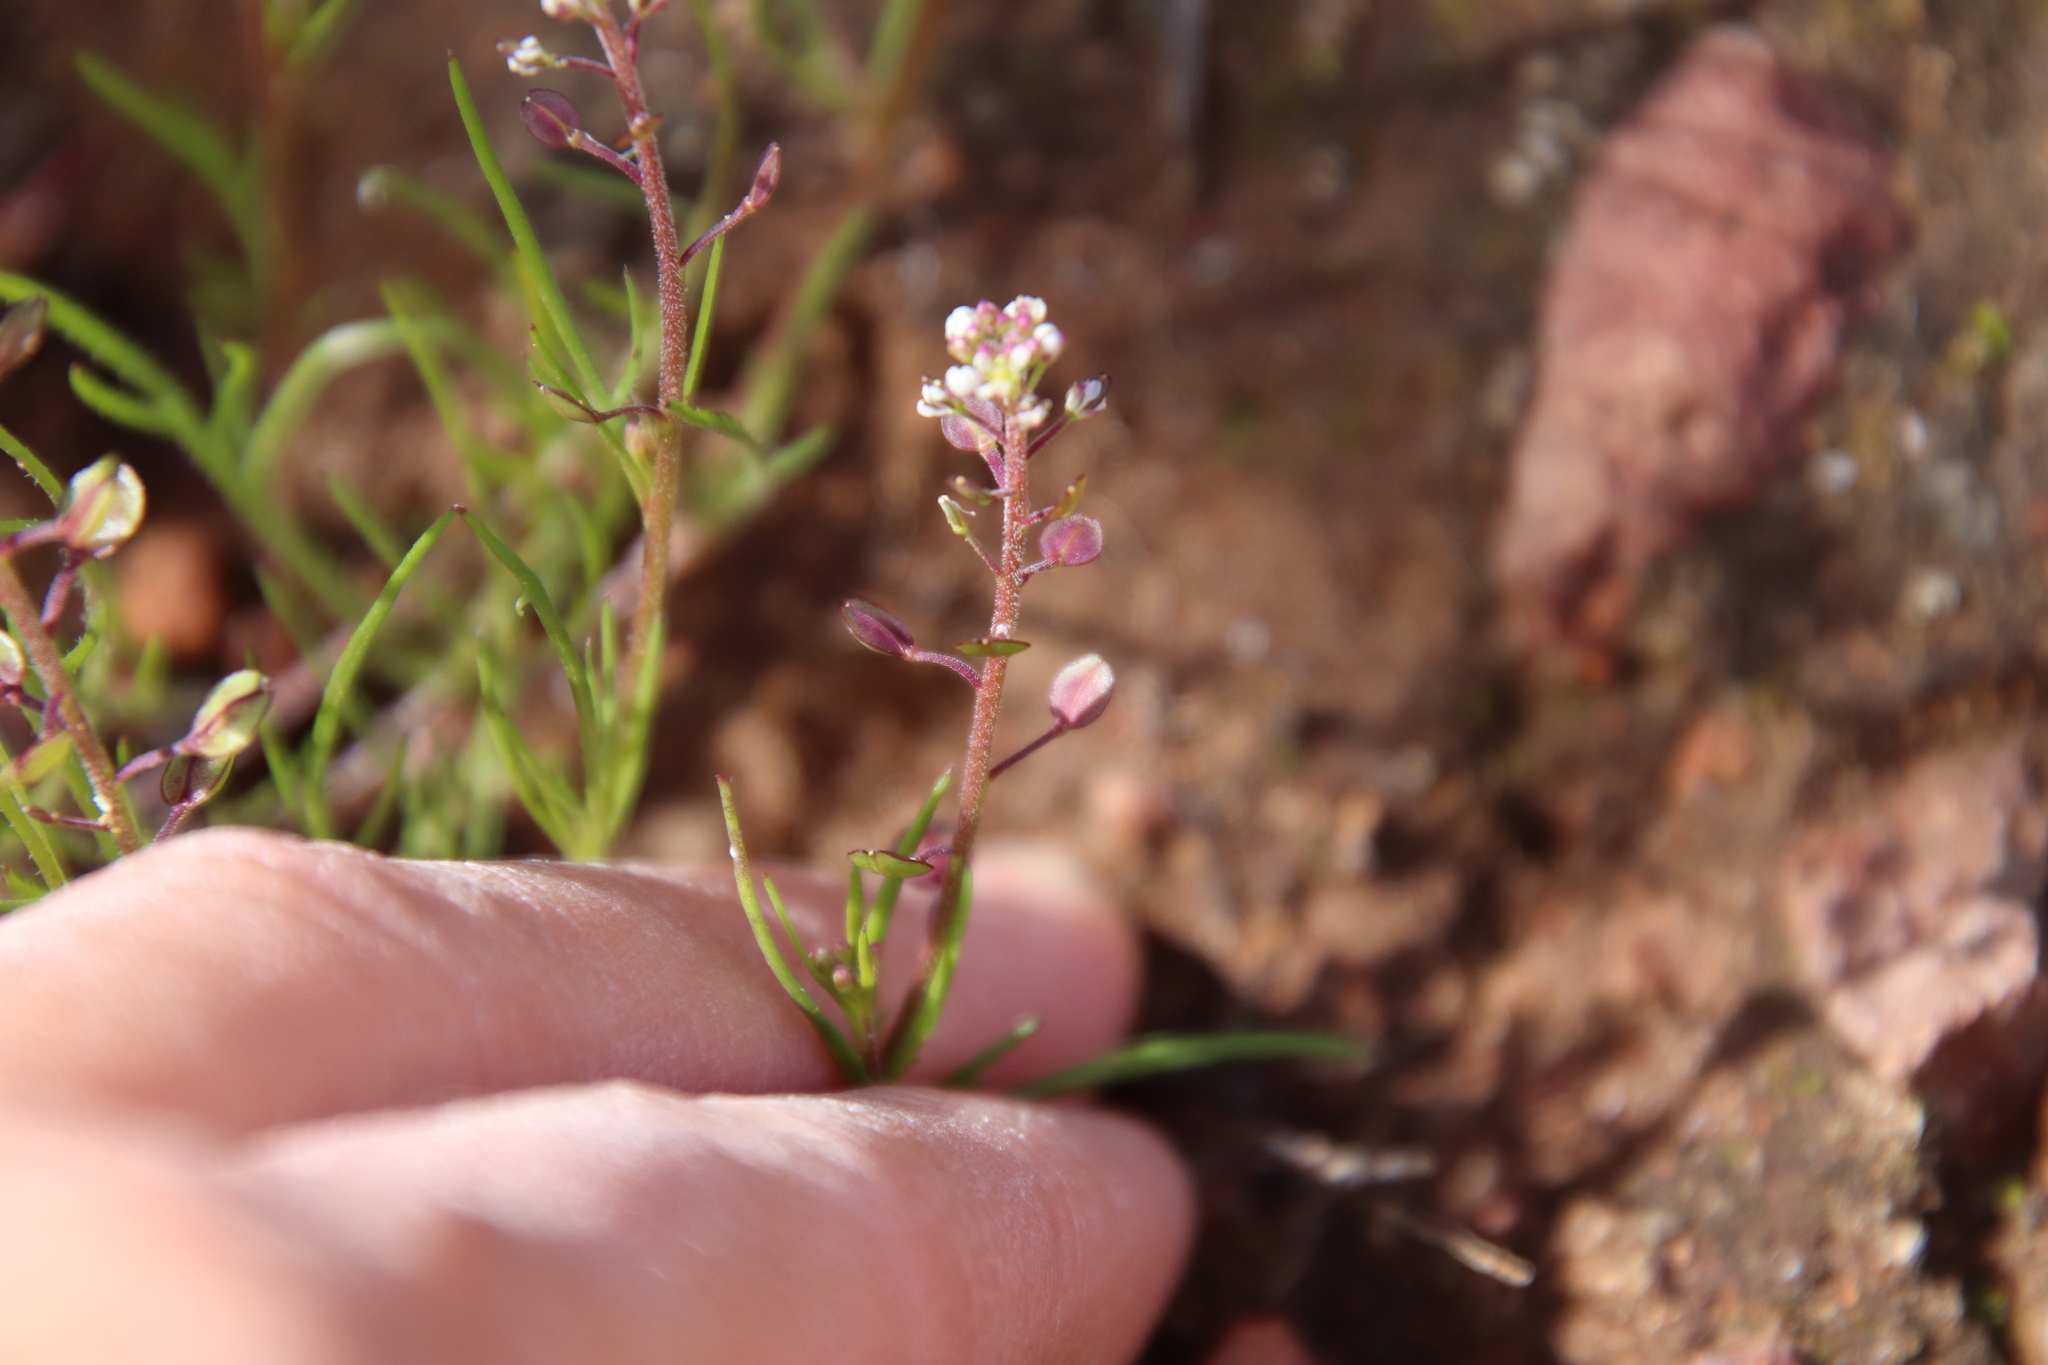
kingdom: Plantae
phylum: Tracheophyta
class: Magnoliopsida
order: Brassicales
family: Brassicaceae
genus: Lepidium
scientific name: Lepidium nitidum
